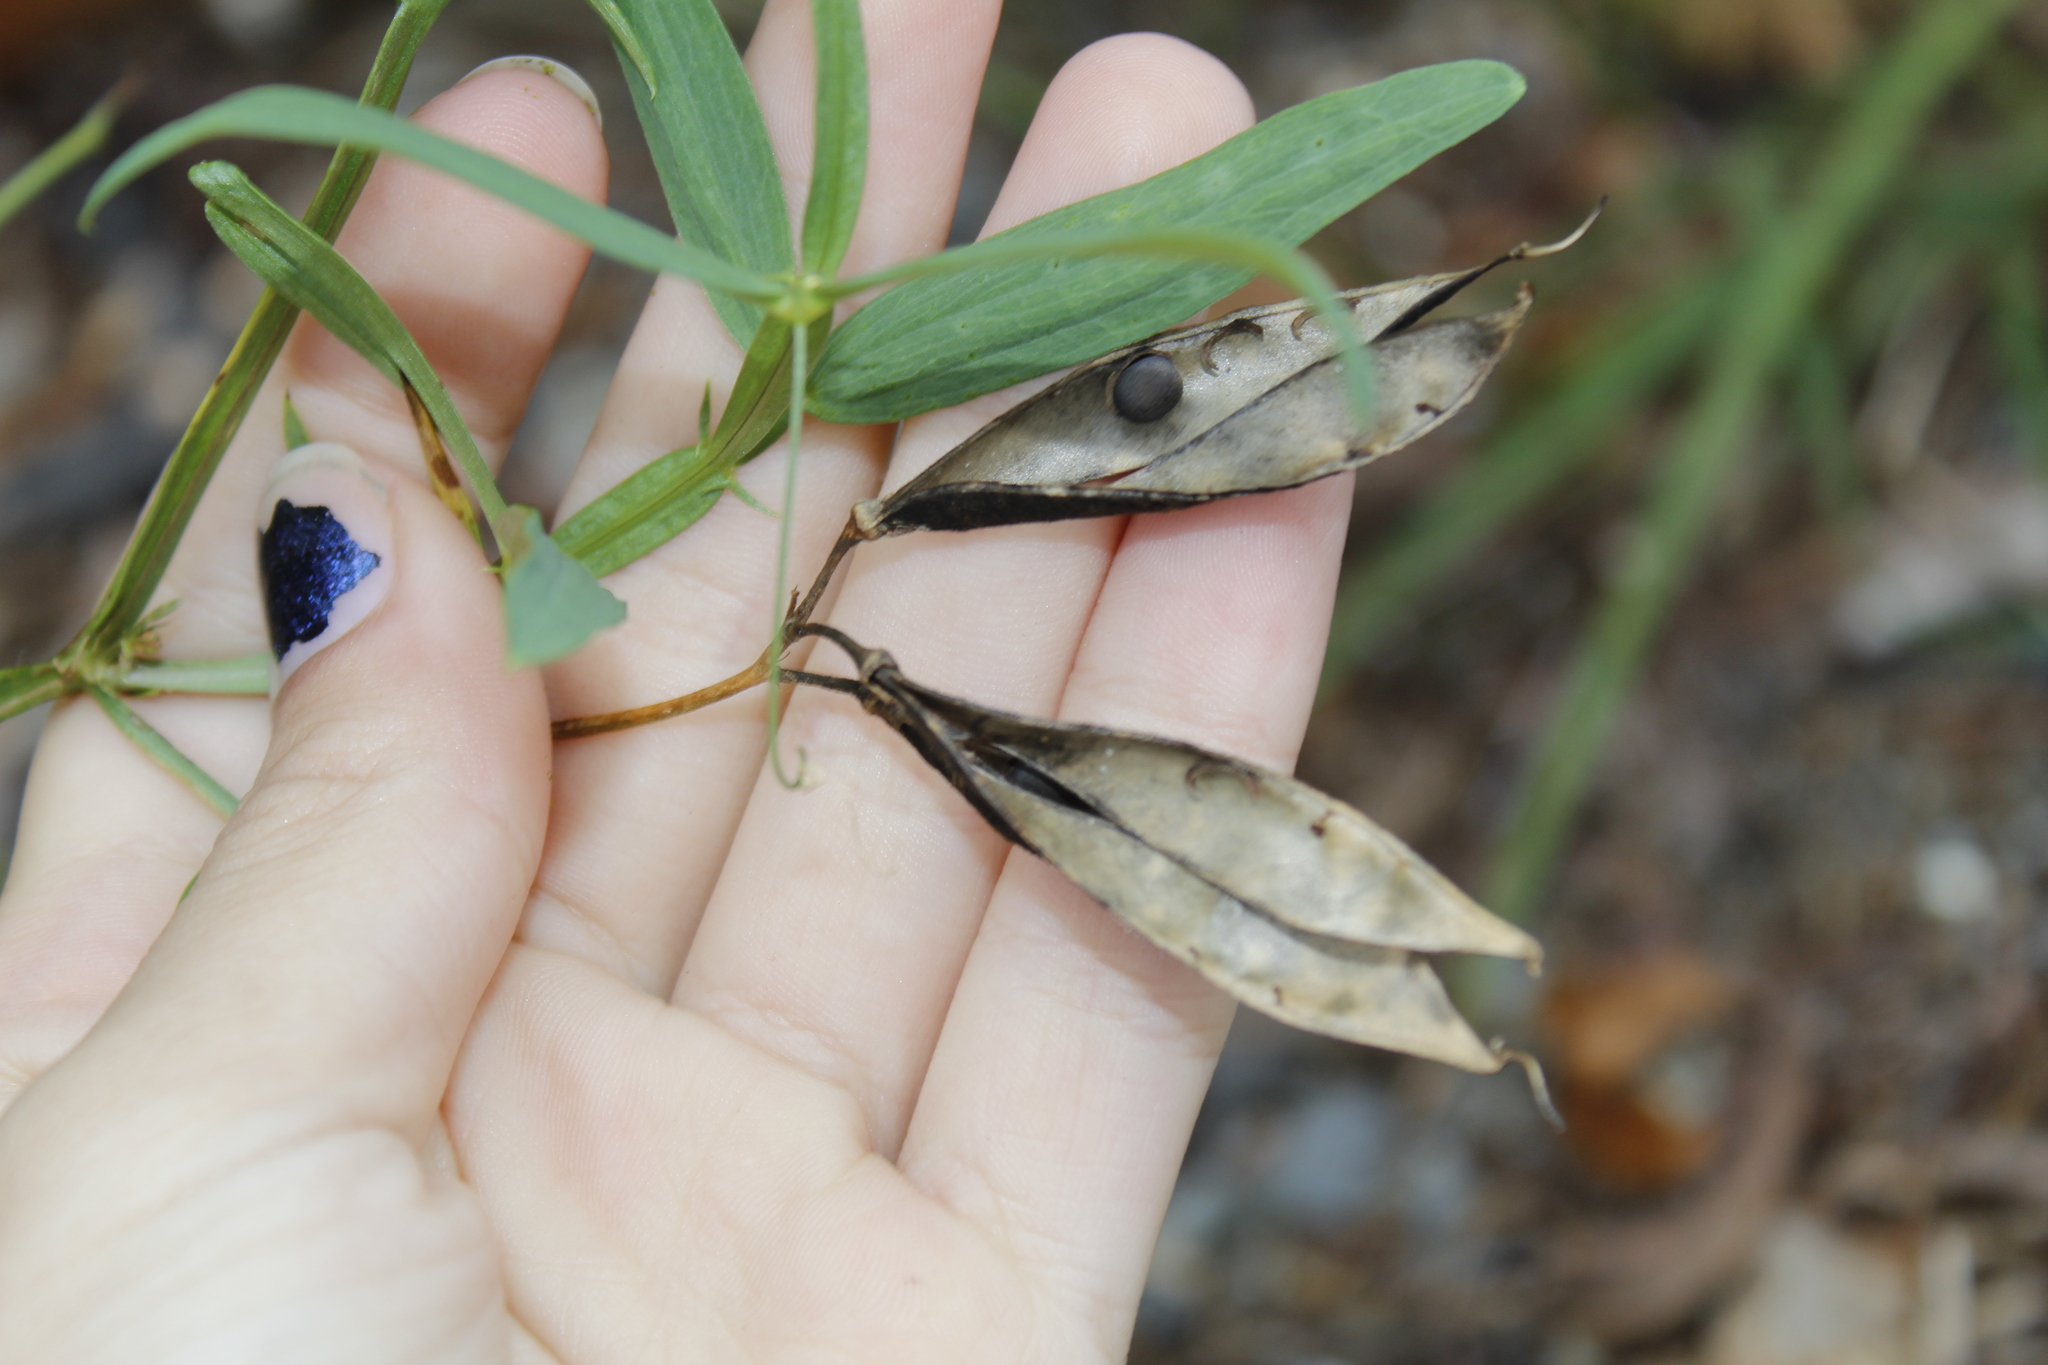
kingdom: Plantae
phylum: Tracheophyta
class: Magnoliopsida
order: Fabales
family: Fabaceae
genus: Lathyrus
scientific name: Lathyrus sylvestris
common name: Flat pea
